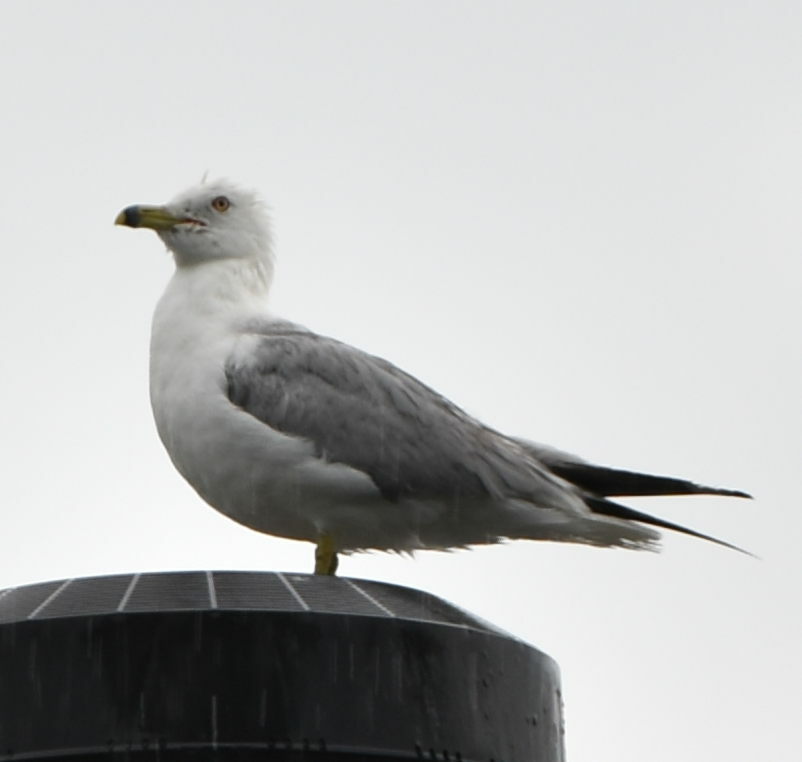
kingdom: Animalia
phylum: Chordata
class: Aves
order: Charadriiformes
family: Laridae
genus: Larus
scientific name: Larus delawarensis
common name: Ring-billed gull
